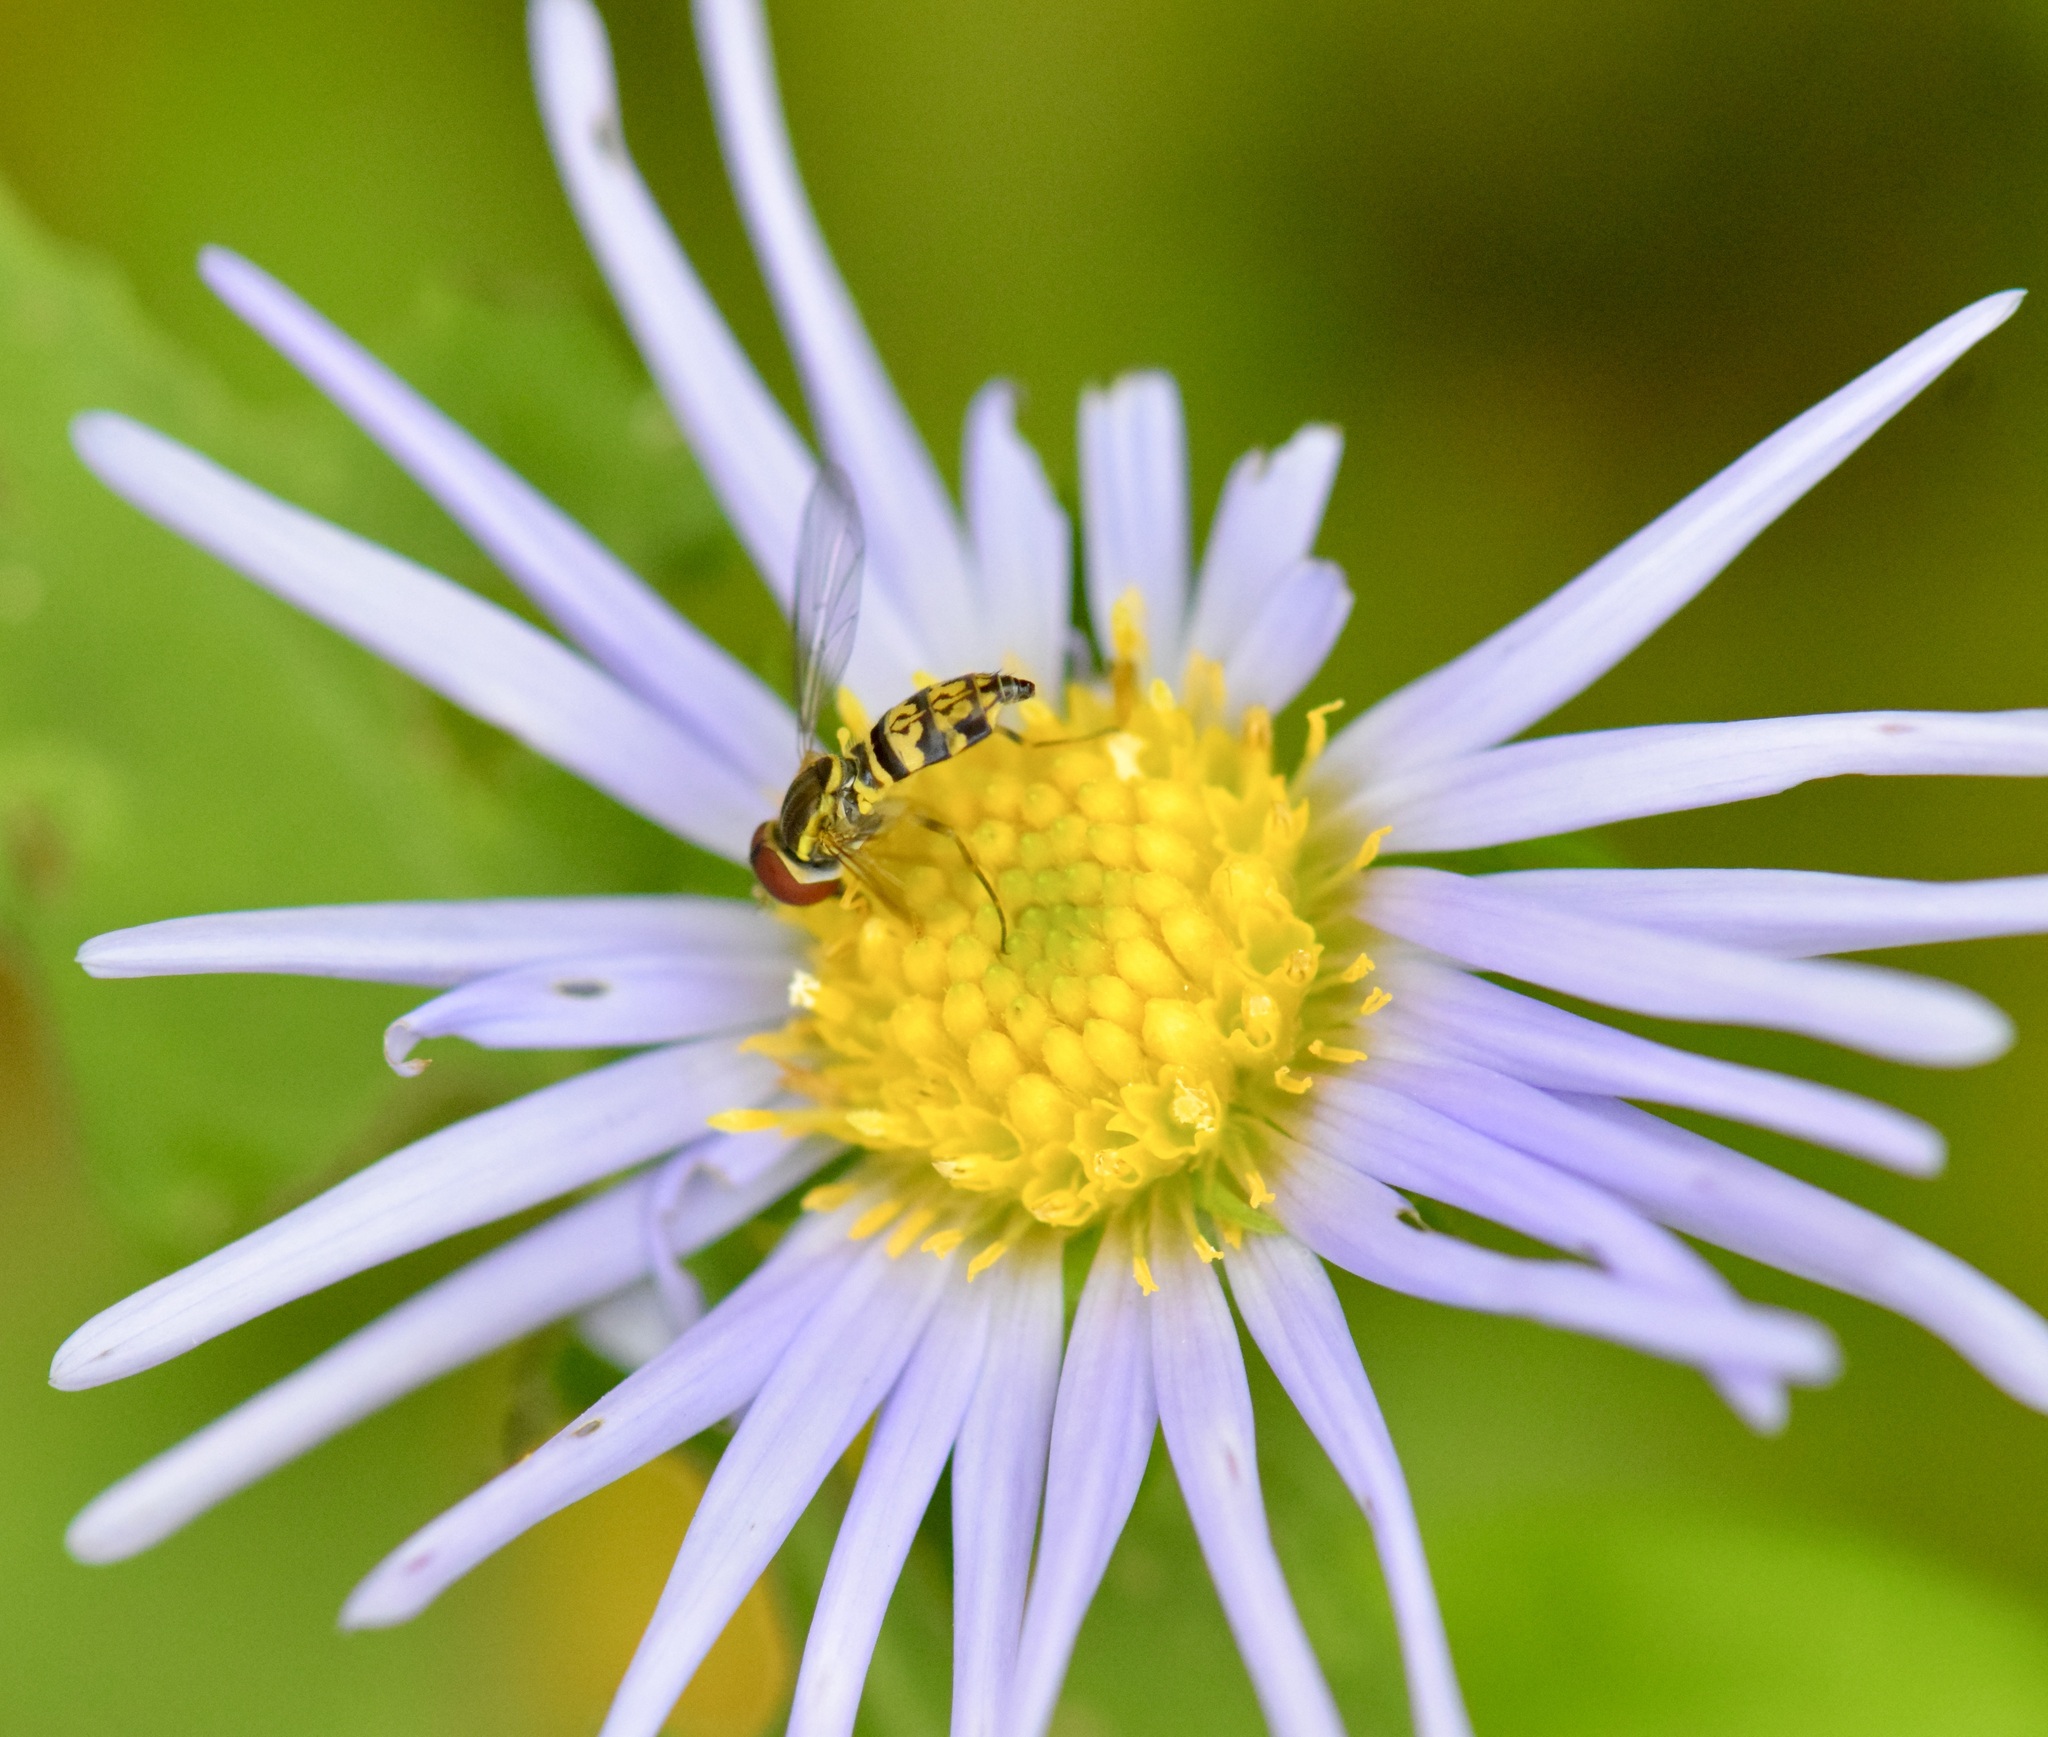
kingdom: Animalia
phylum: Arthropoda
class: Insecta
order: Diptera
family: Syrphidae
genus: Toxomerus
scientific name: Toxomerus geminatus
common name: Eastern calligrapher
